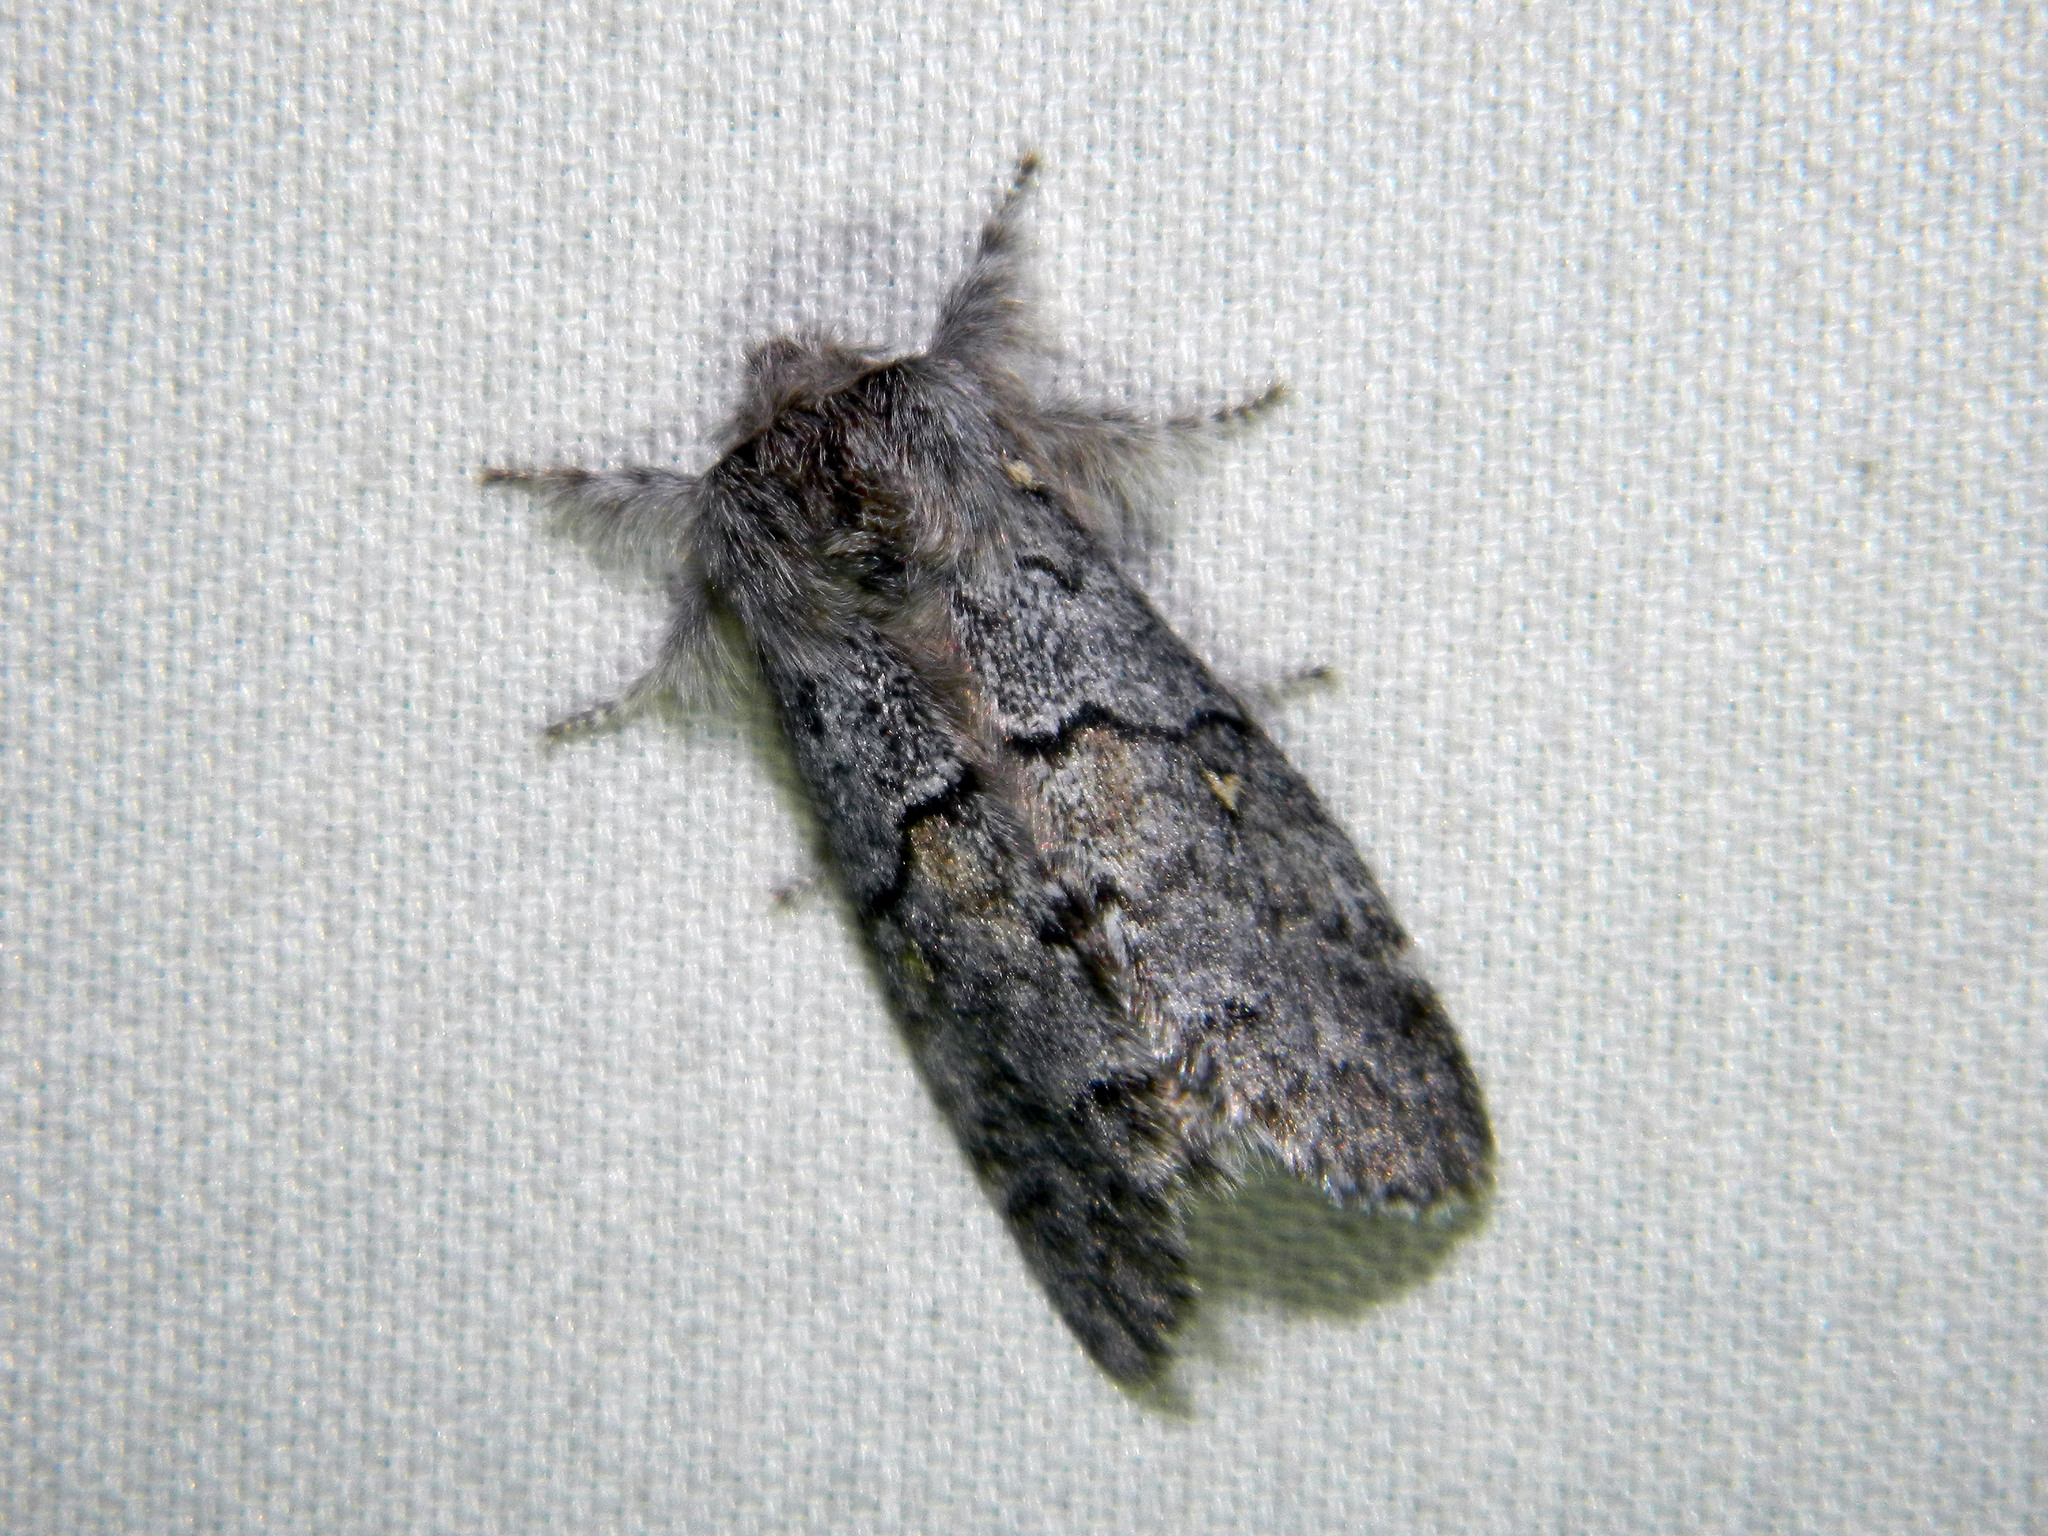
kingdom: Animalia
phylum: Arthropoda
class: Insecta
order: Lepidoptera
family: Notodontidae
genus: Gluphisia
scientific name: Gluphisia avimacula
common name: Four-spotted gluphisia moth
